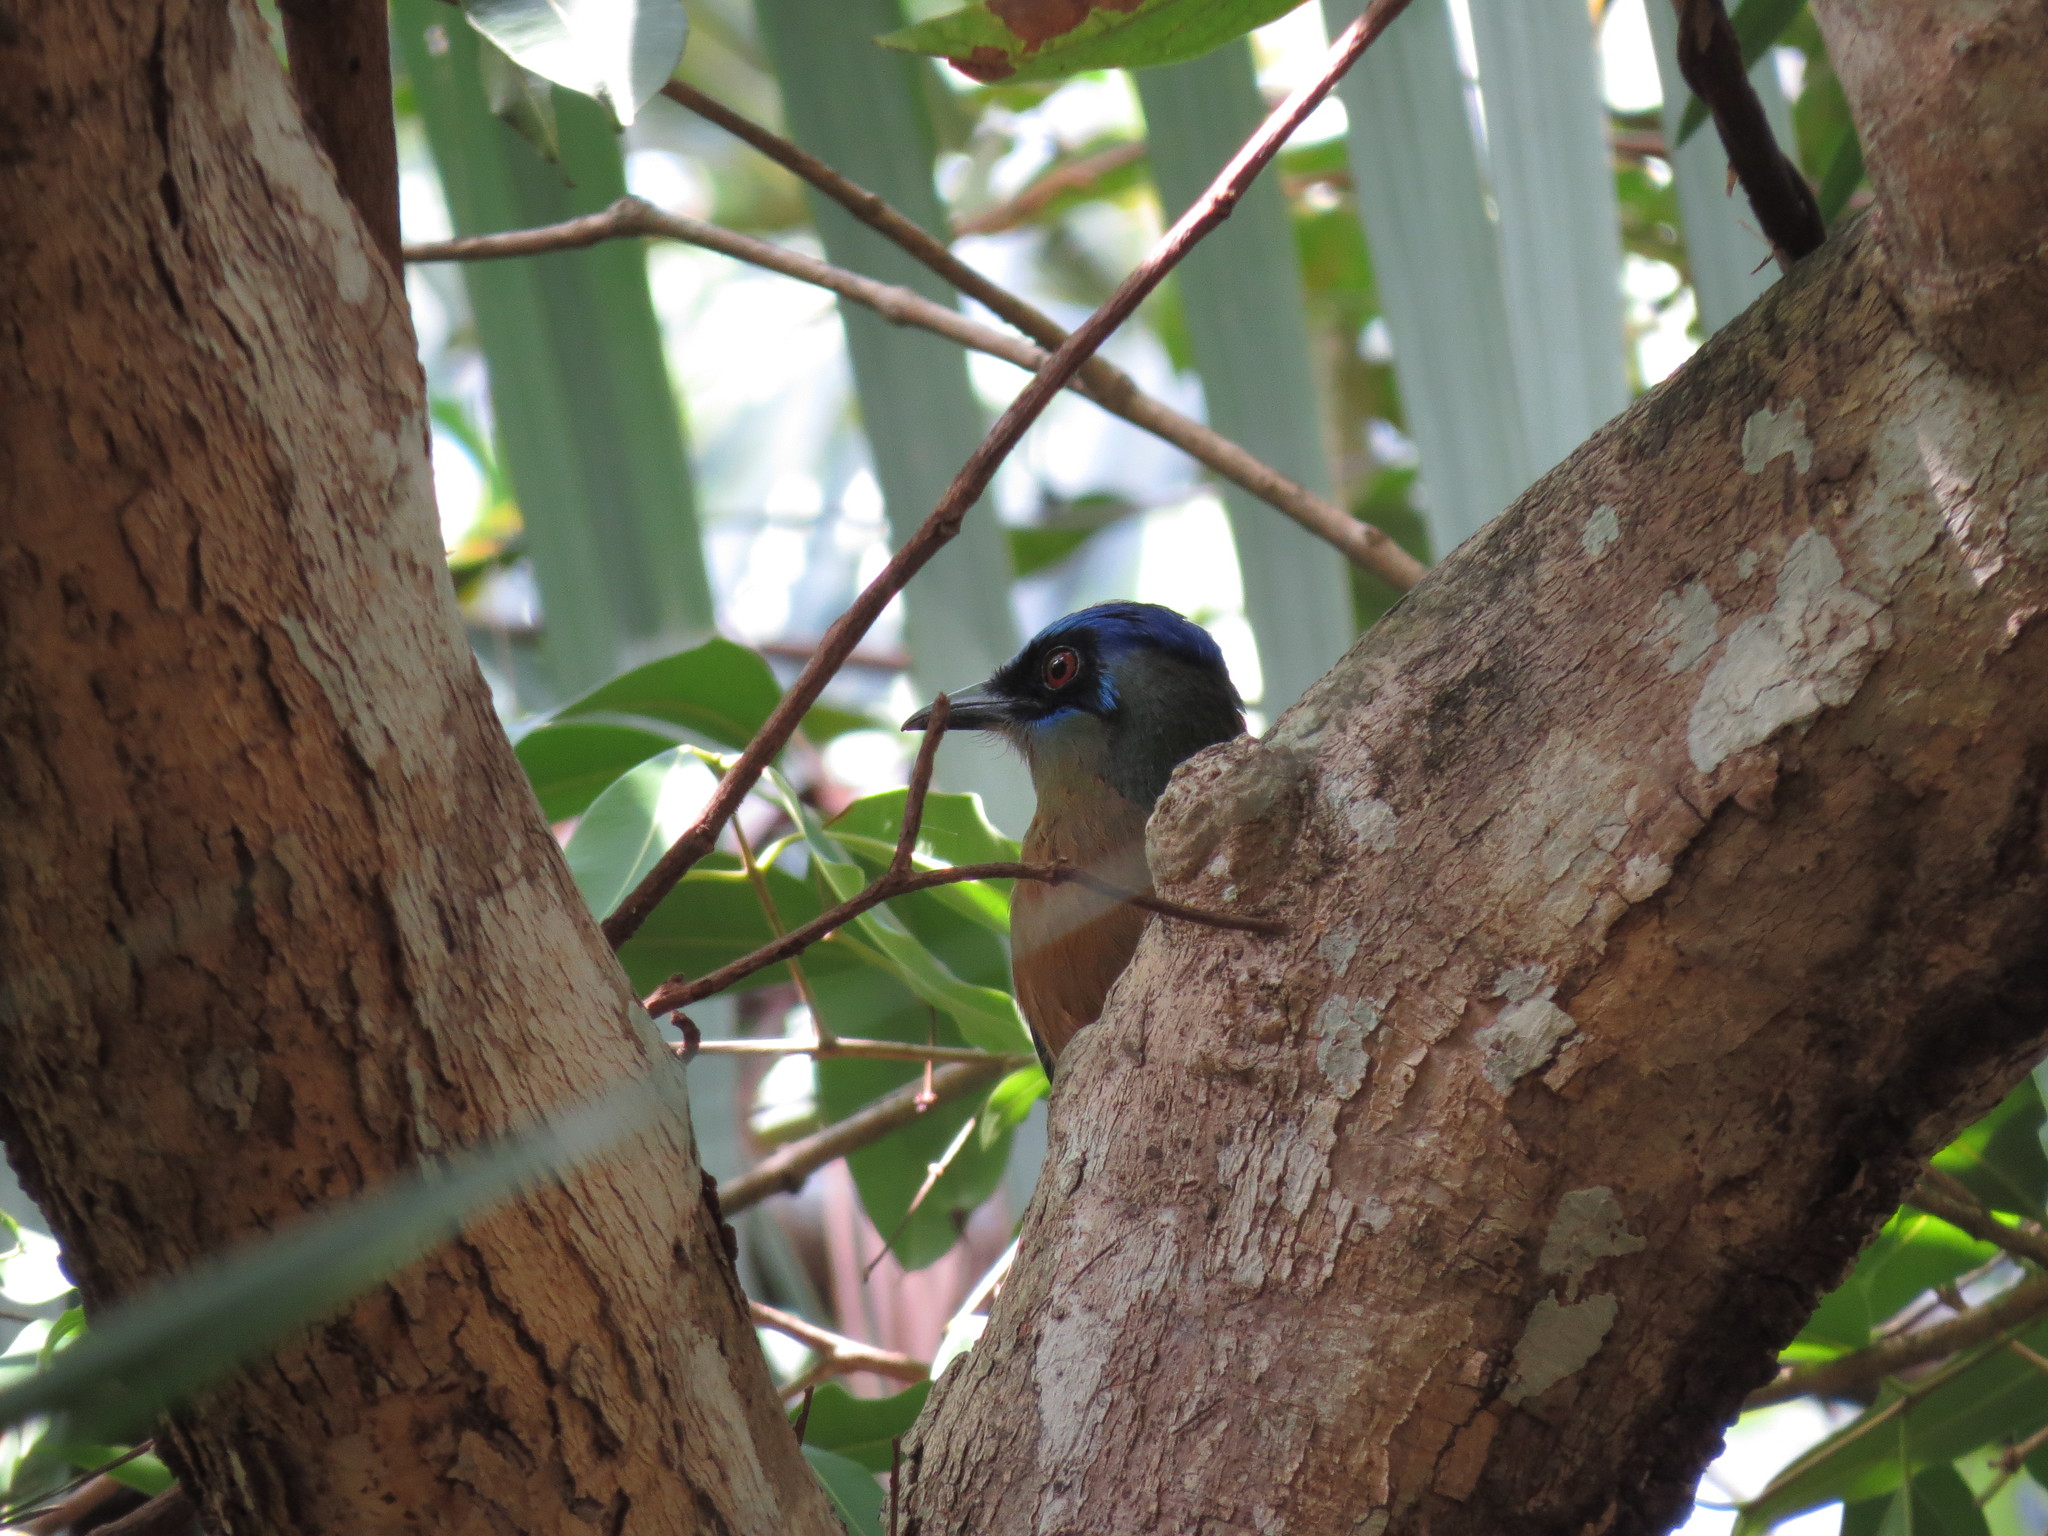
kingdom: Animalia
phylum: Chordata
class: Aves
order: Coraciiformes
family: Momotidae
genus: Momotus
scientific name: Momotus momota
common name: Amazonian motmot
